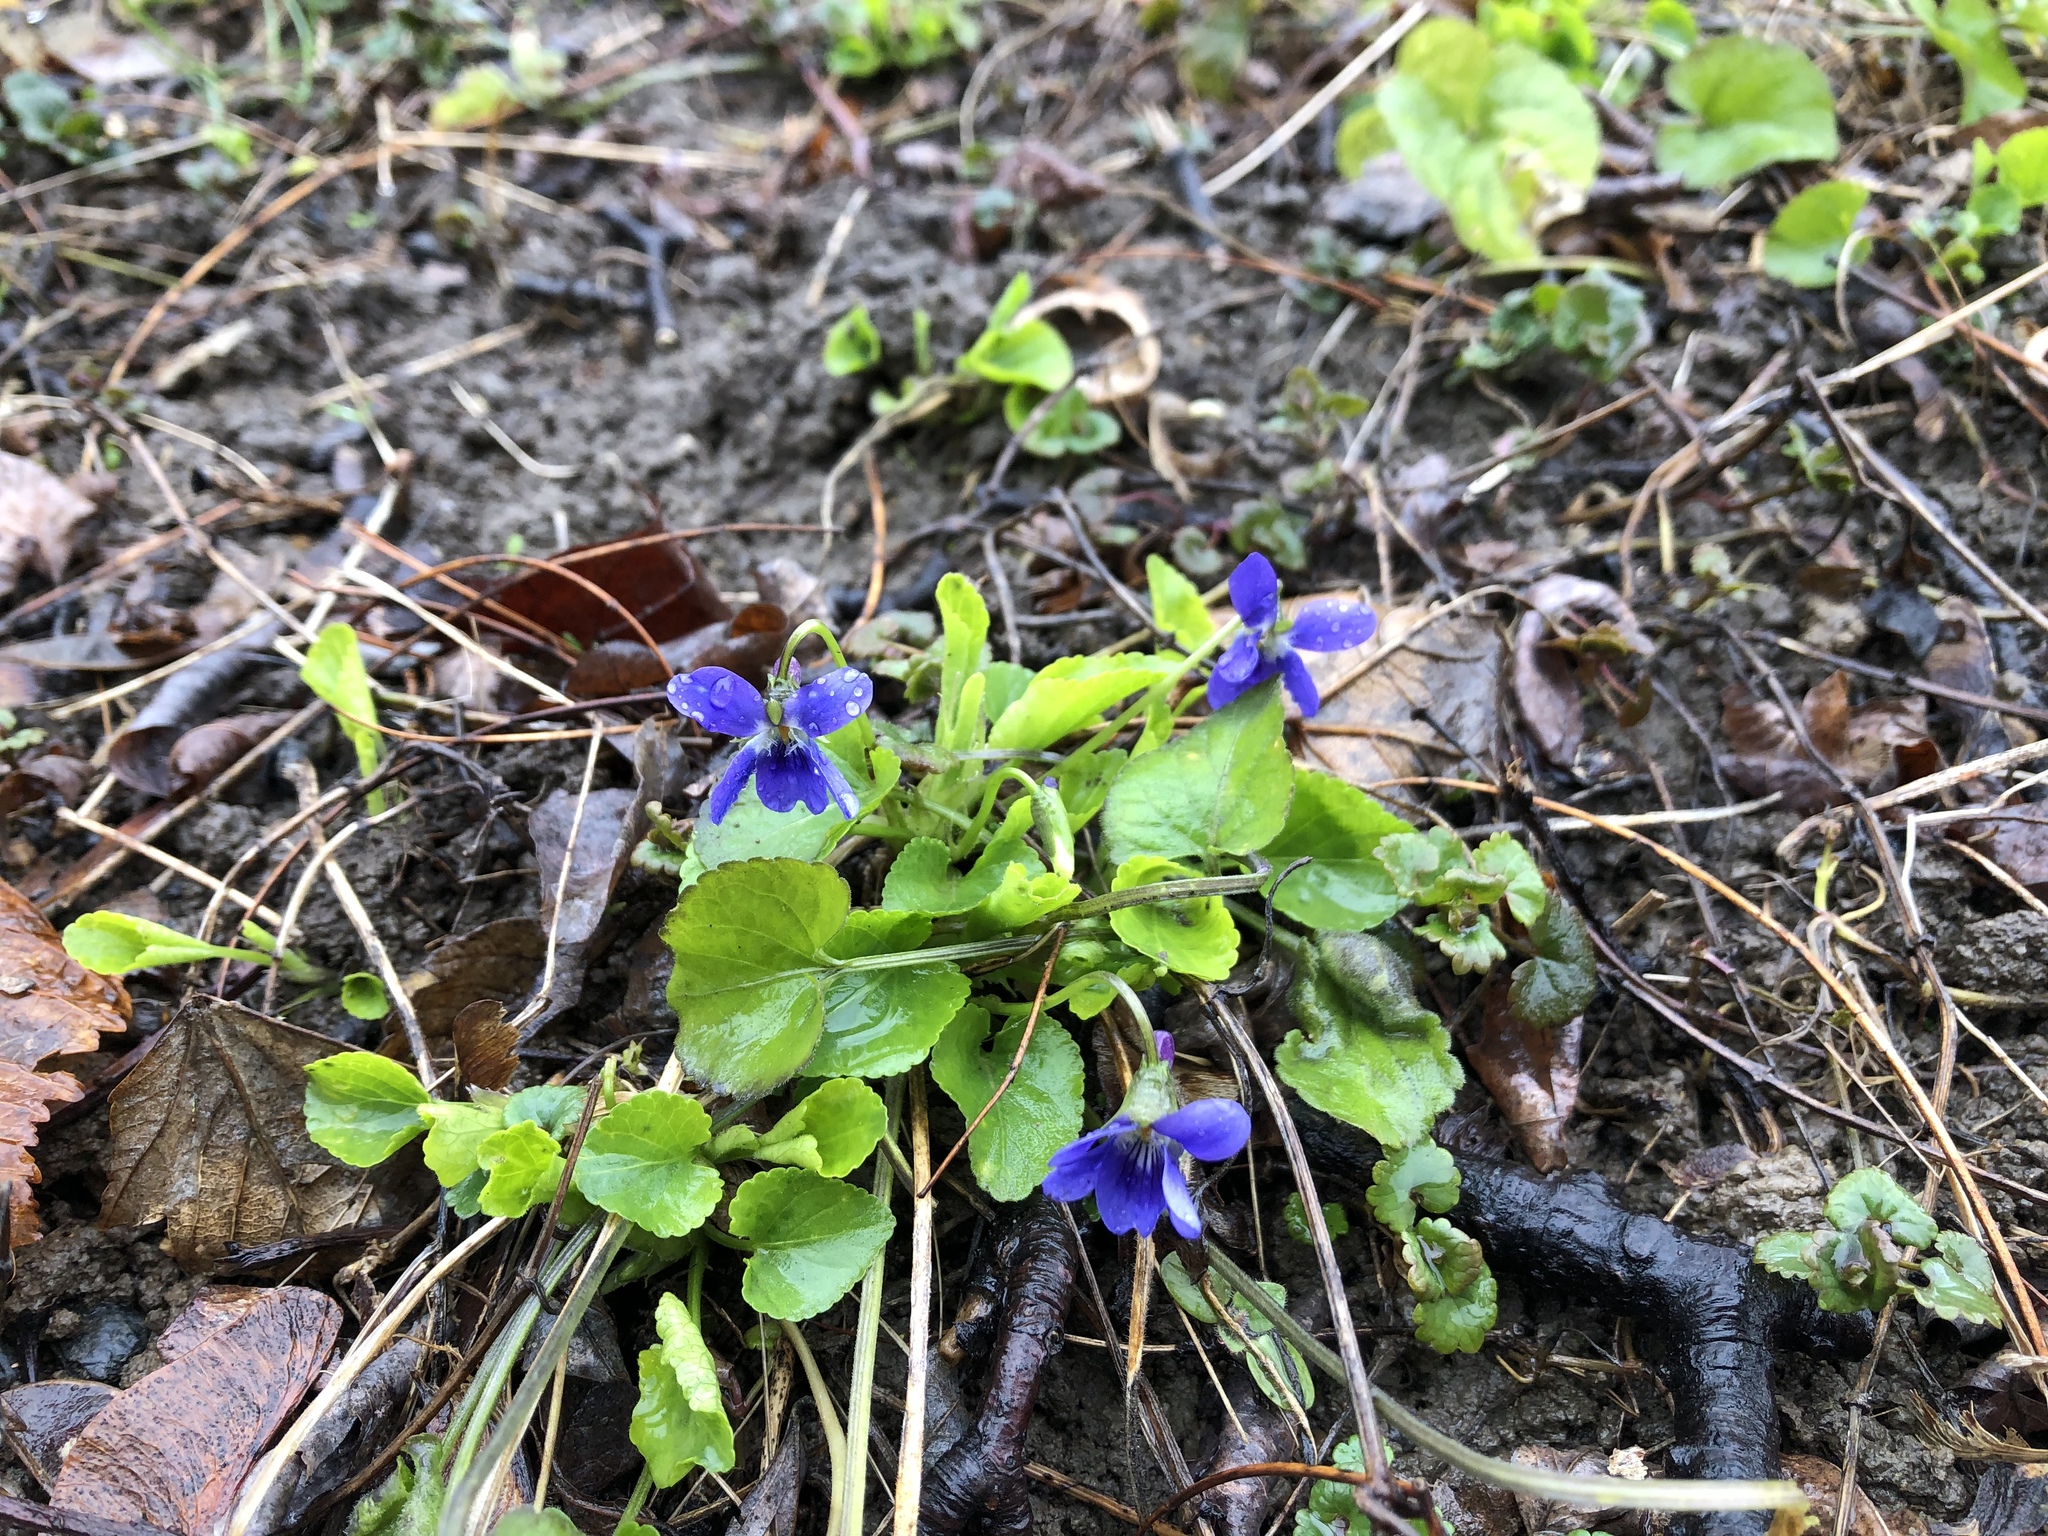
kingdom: Plantae
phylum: Tracheophyta
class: Magnoliopsida
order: Malpighiales
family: Violaceae
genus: Viola
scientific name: Viola odorata
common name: Sweet violet
